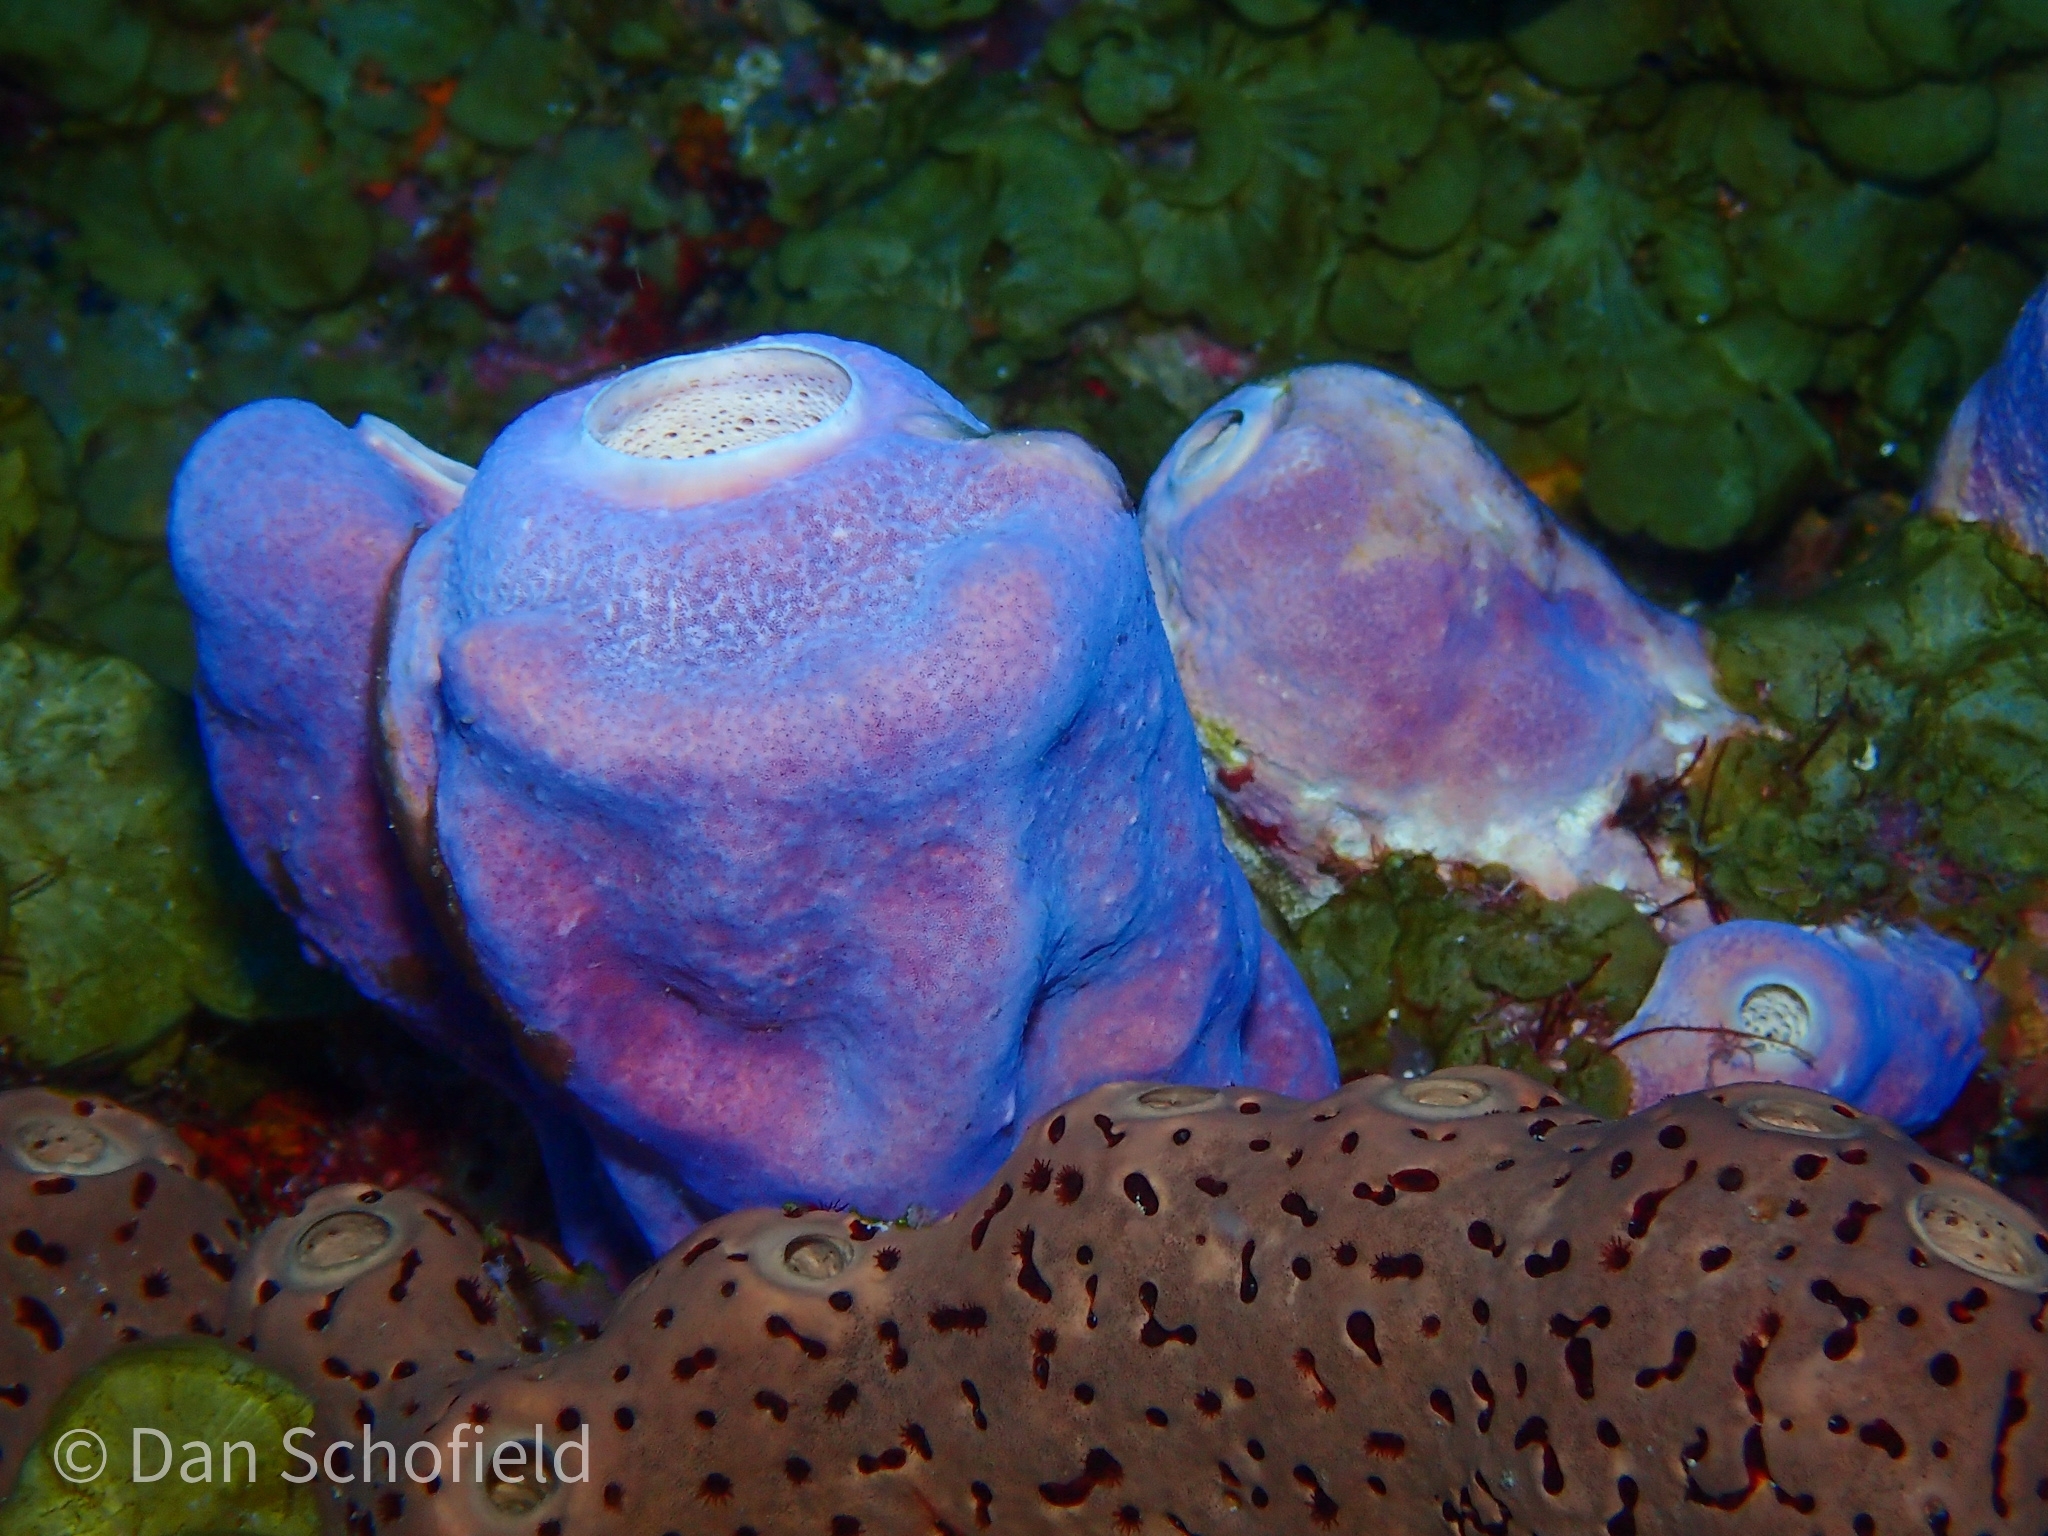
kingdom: Animalia
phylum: Porifera
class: Demospongiae
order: Verongiida
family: Aplysinidae
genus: Aplysina
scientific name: Aplysina archeri
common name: Stove-pipe sponge
